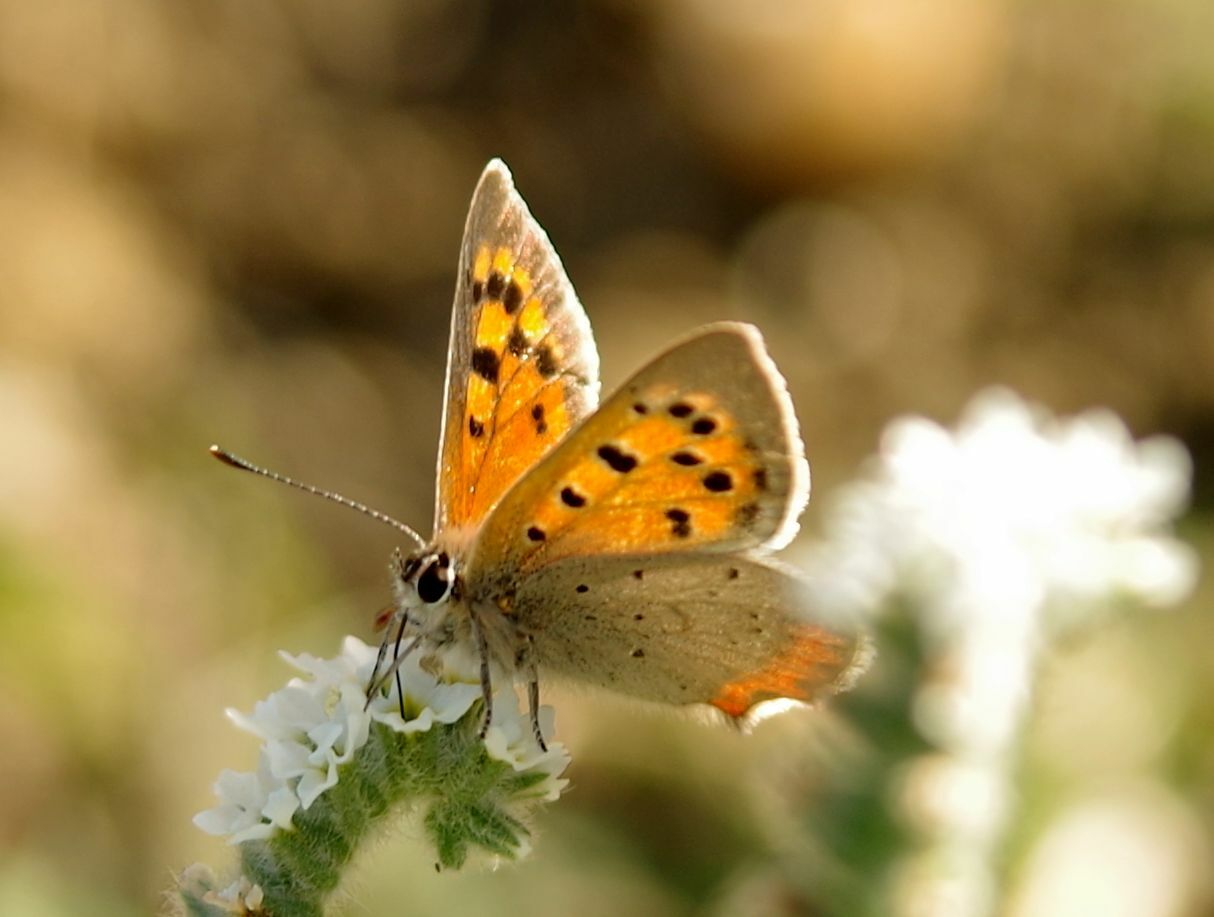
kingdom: Animalia
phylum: Arthropoda
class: Insecta
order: Lepidoptera
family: Lycaenidae
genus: Lycaena
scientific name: Lycaena phlaeas
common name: Small copper
